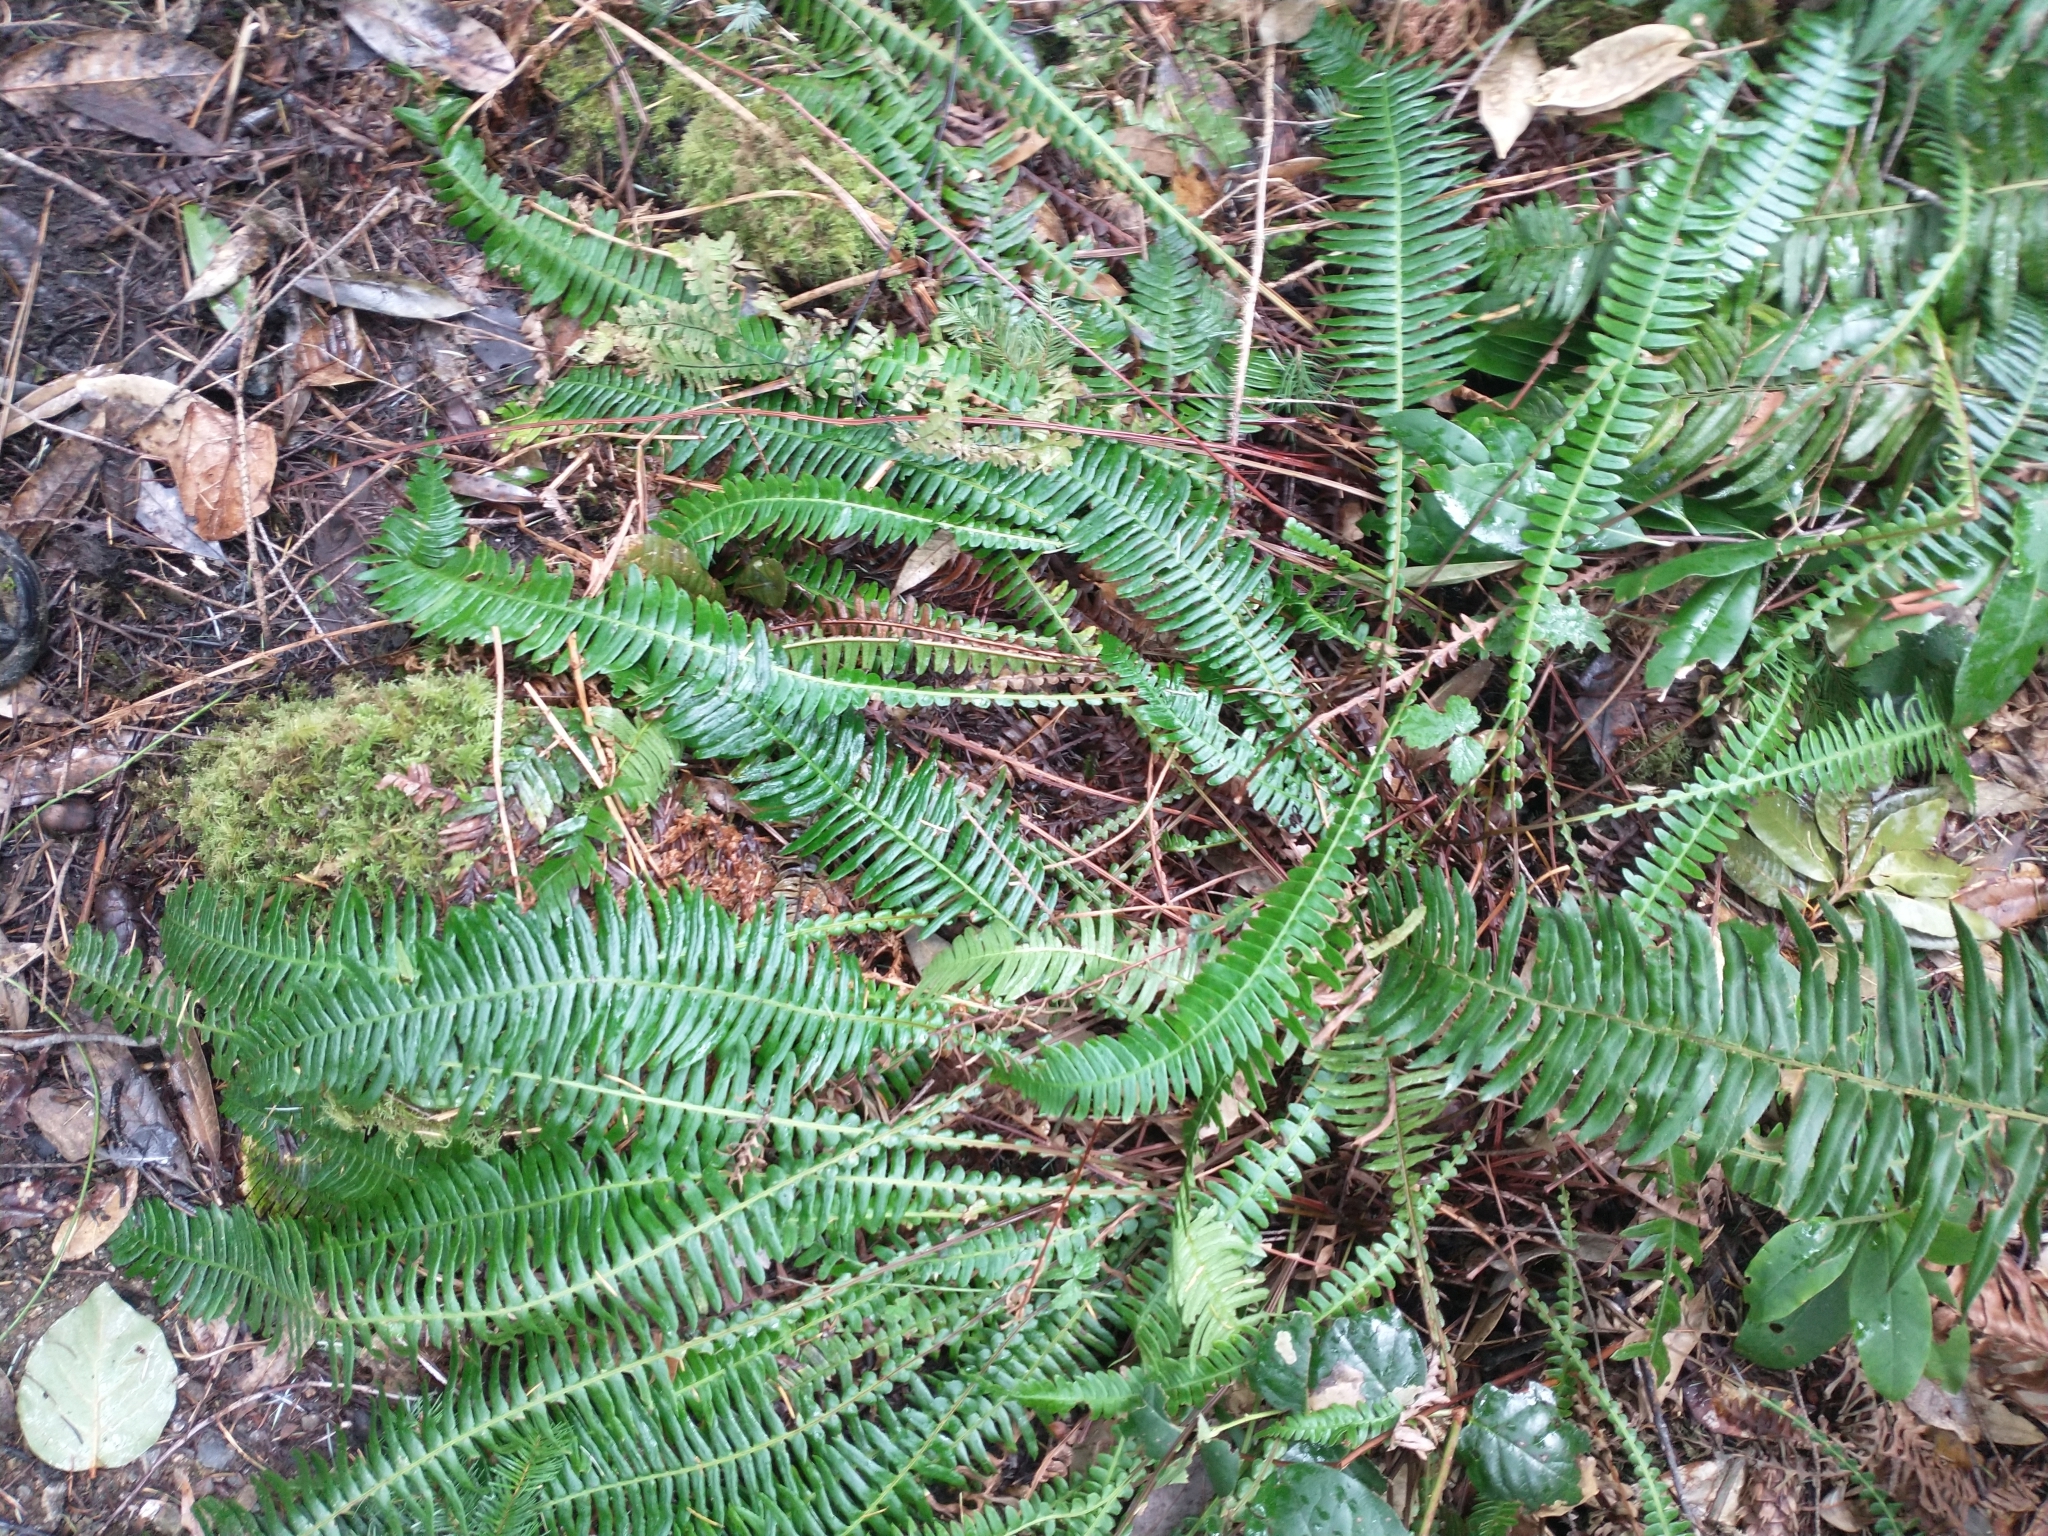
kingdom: Plantae
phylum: Tracheophyta
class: Polypodiopsida
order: Polypodiales
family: Blechnaceae
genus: Struthiopteris
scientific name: Struthiopteris spicant
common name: Deer fern
